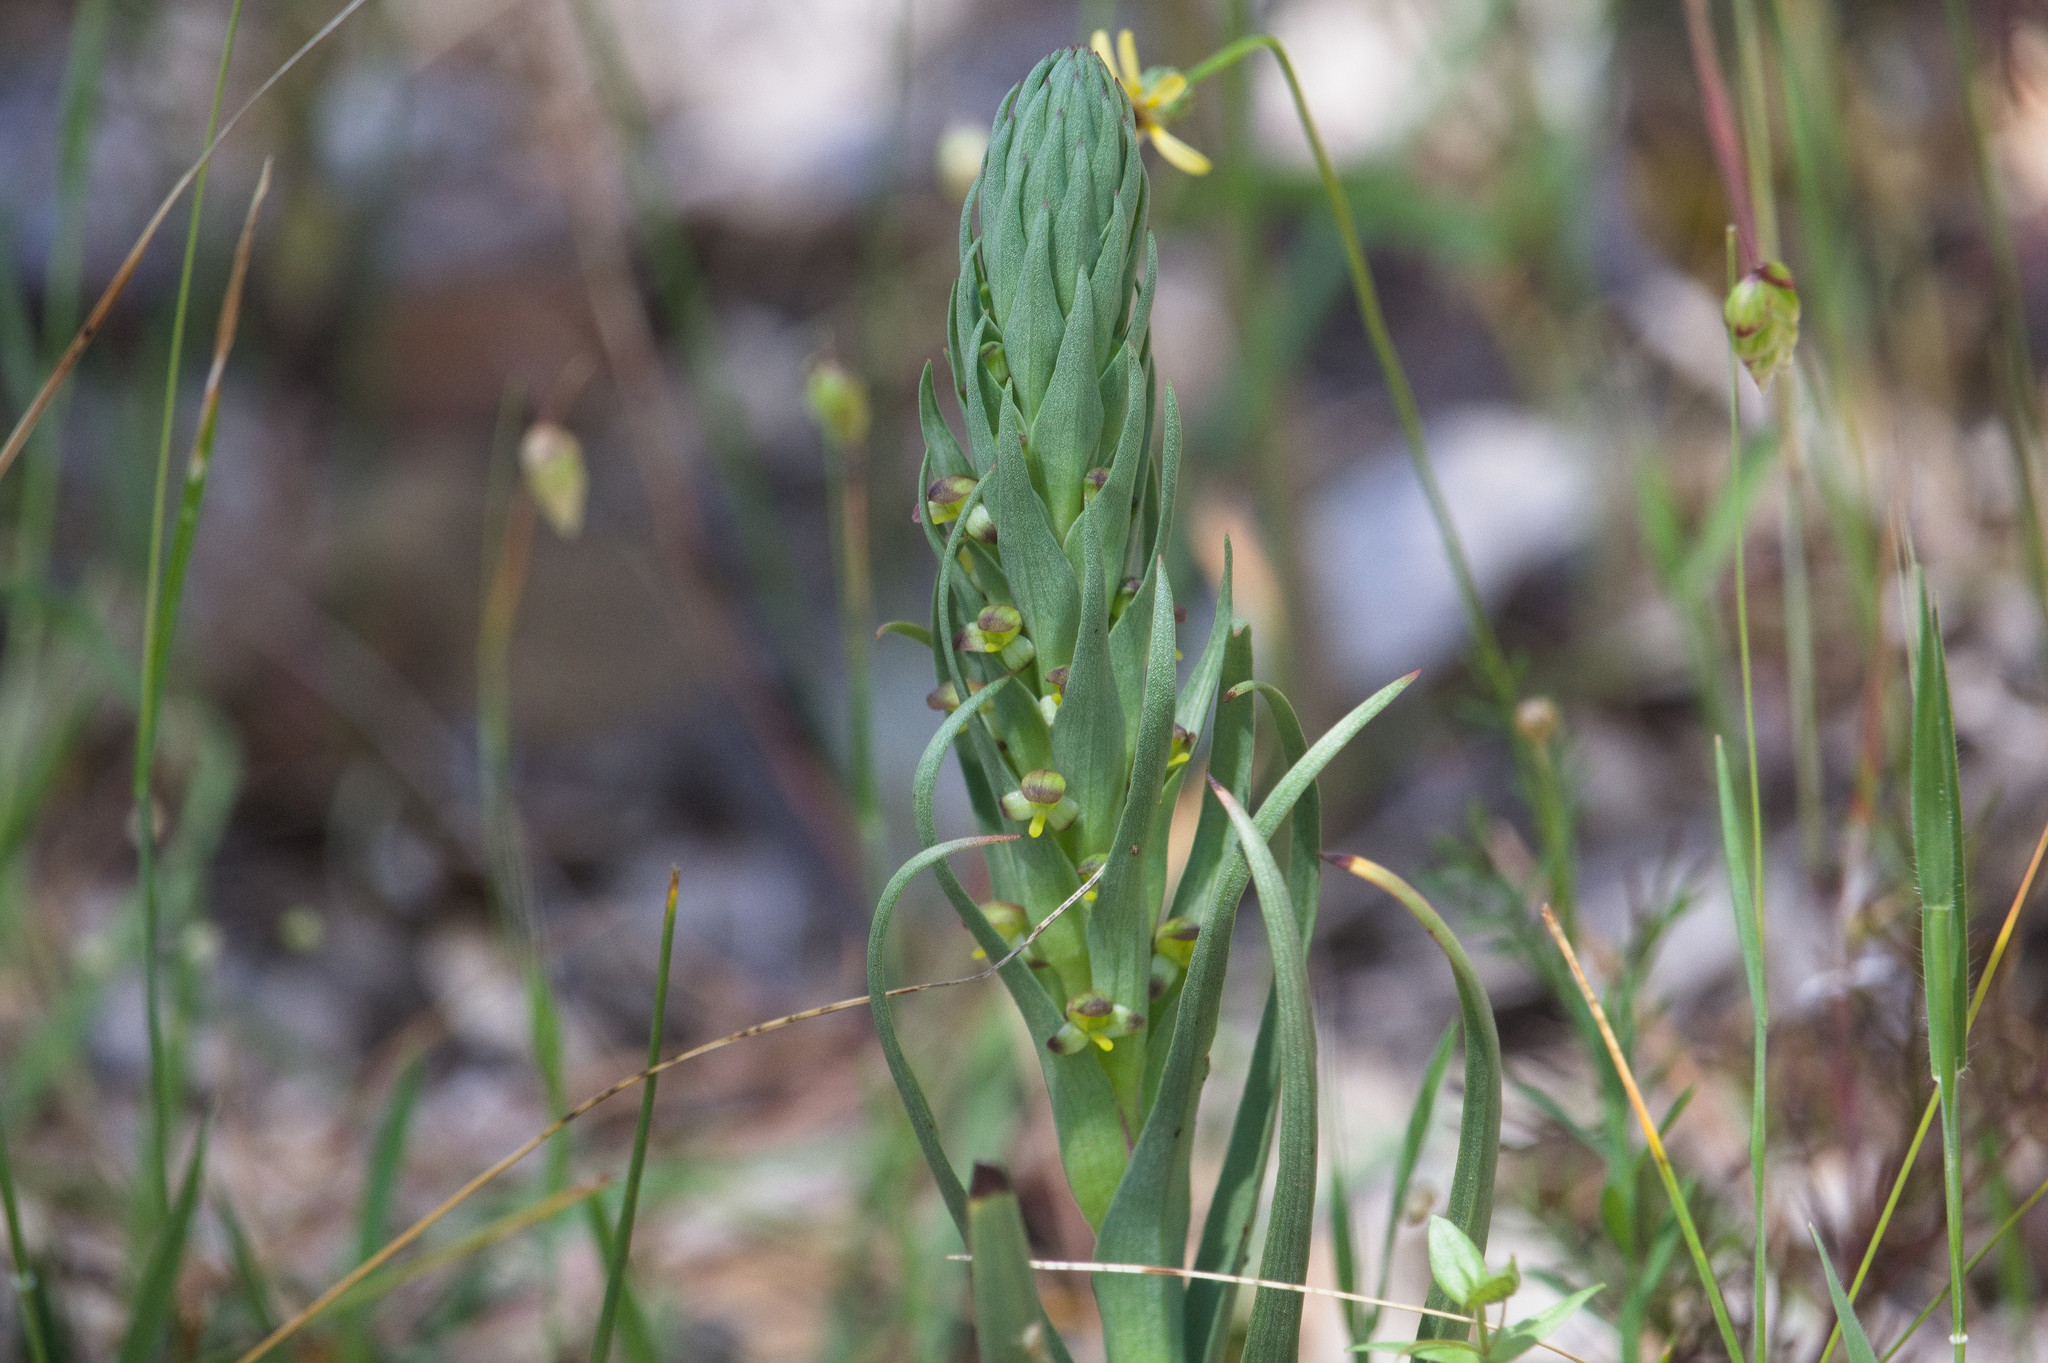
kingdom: Plantae
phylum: Tracheophyta
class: Liliopsida
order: Asparagales
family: Orchidaceae
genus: Disa
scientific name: Disa bracteata
